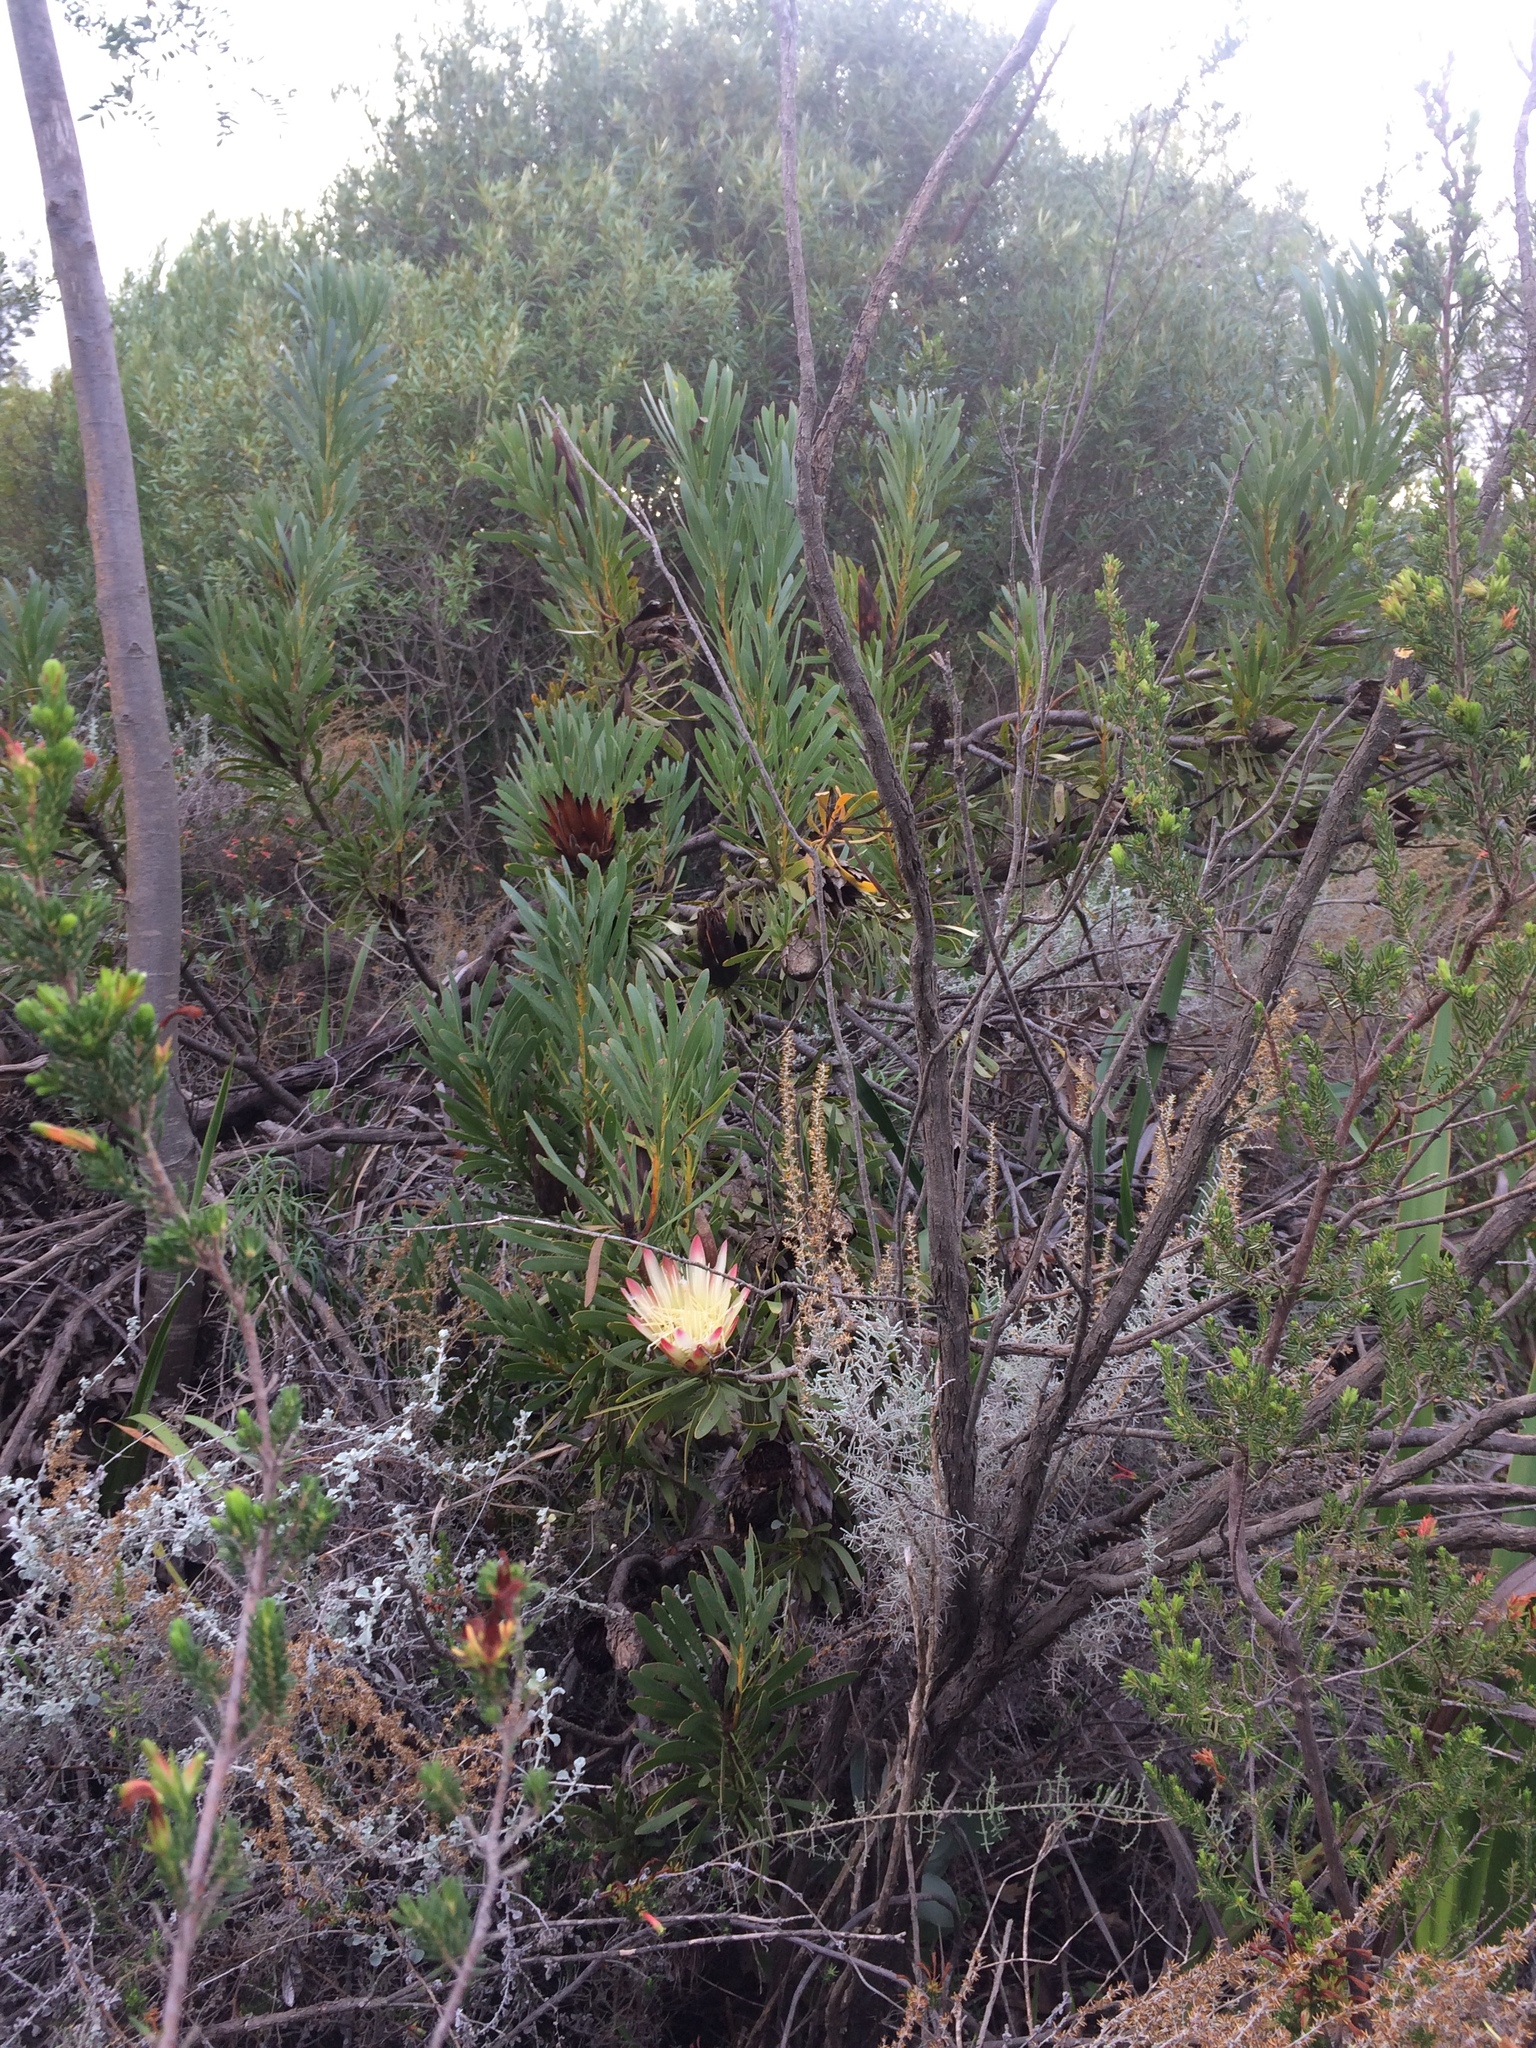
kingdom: Plantae
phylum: Tracheophyta
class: Magnoliopsida
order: Proteales
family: Proteaceae
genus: Protea
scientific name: Protea repens
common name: Sugarbush
